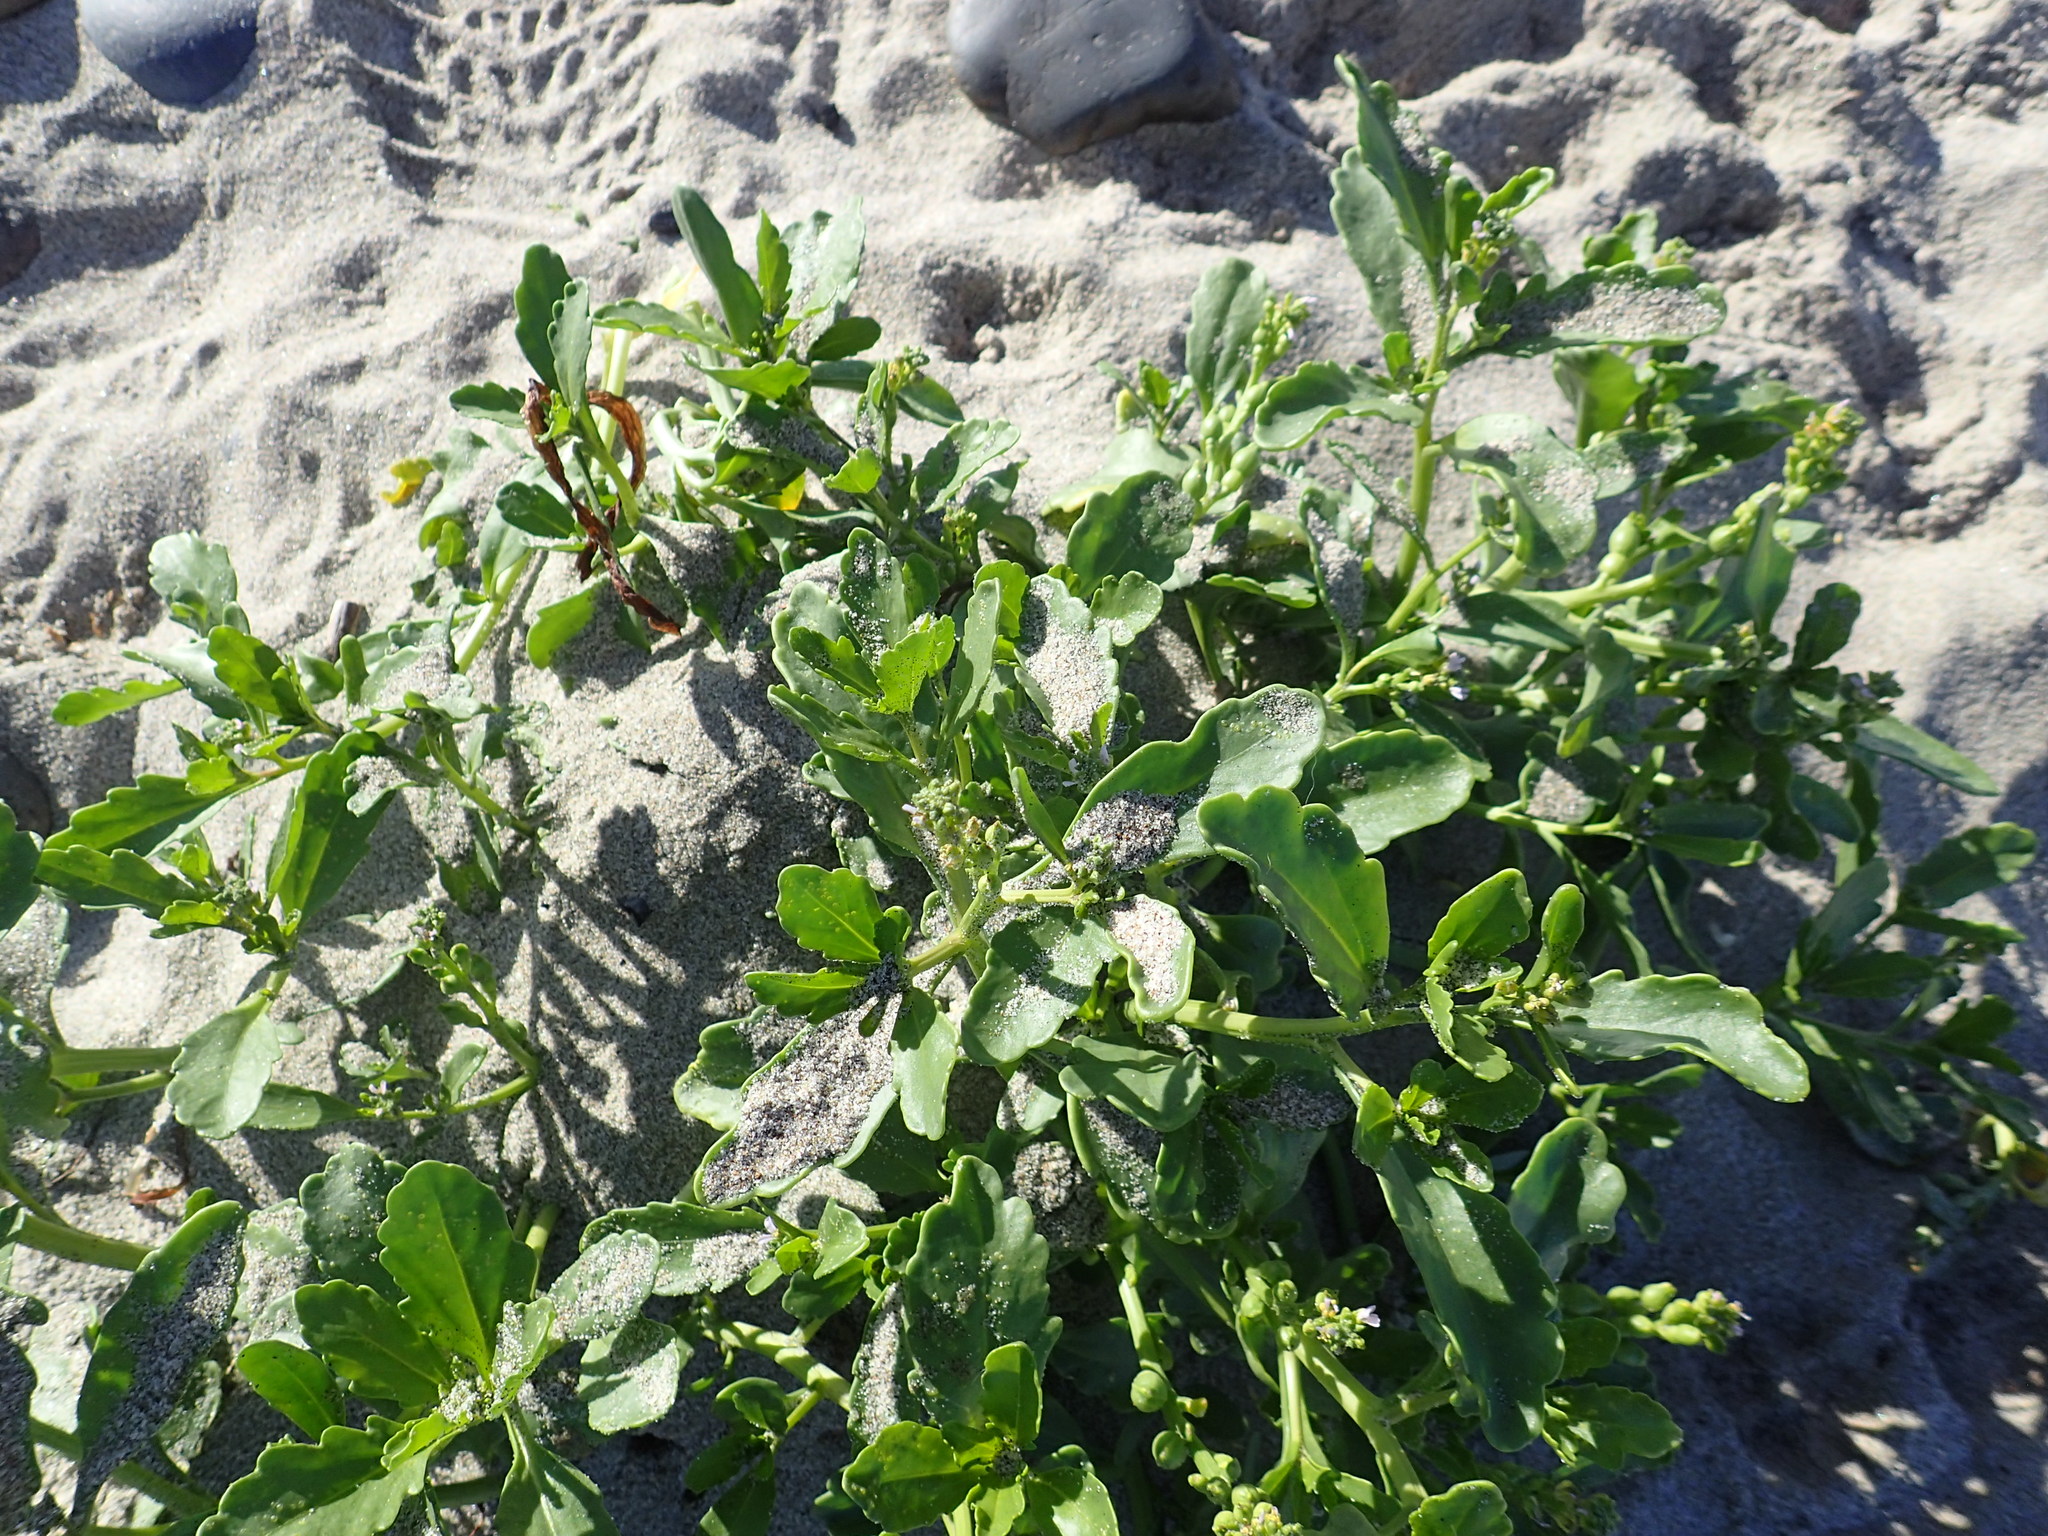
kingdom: Plantae
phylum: Tracheophyta
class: Magnoliopsida
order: Brassicales
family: Brassicaceae
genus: Cakile
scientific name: Cakile edentula
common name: American sea rocket
